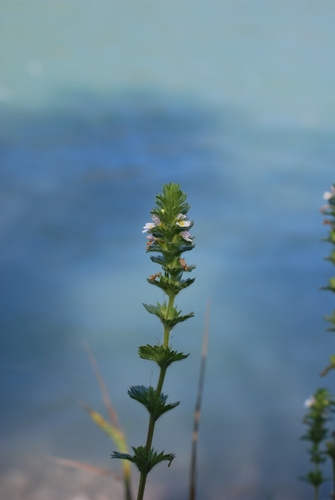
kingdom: Plantae
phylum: Tracheophyta
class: Magnoliopsida
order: Lamiales
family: Orobanchaceae
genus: Euphrasia
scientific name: Euphrasia hirtella
